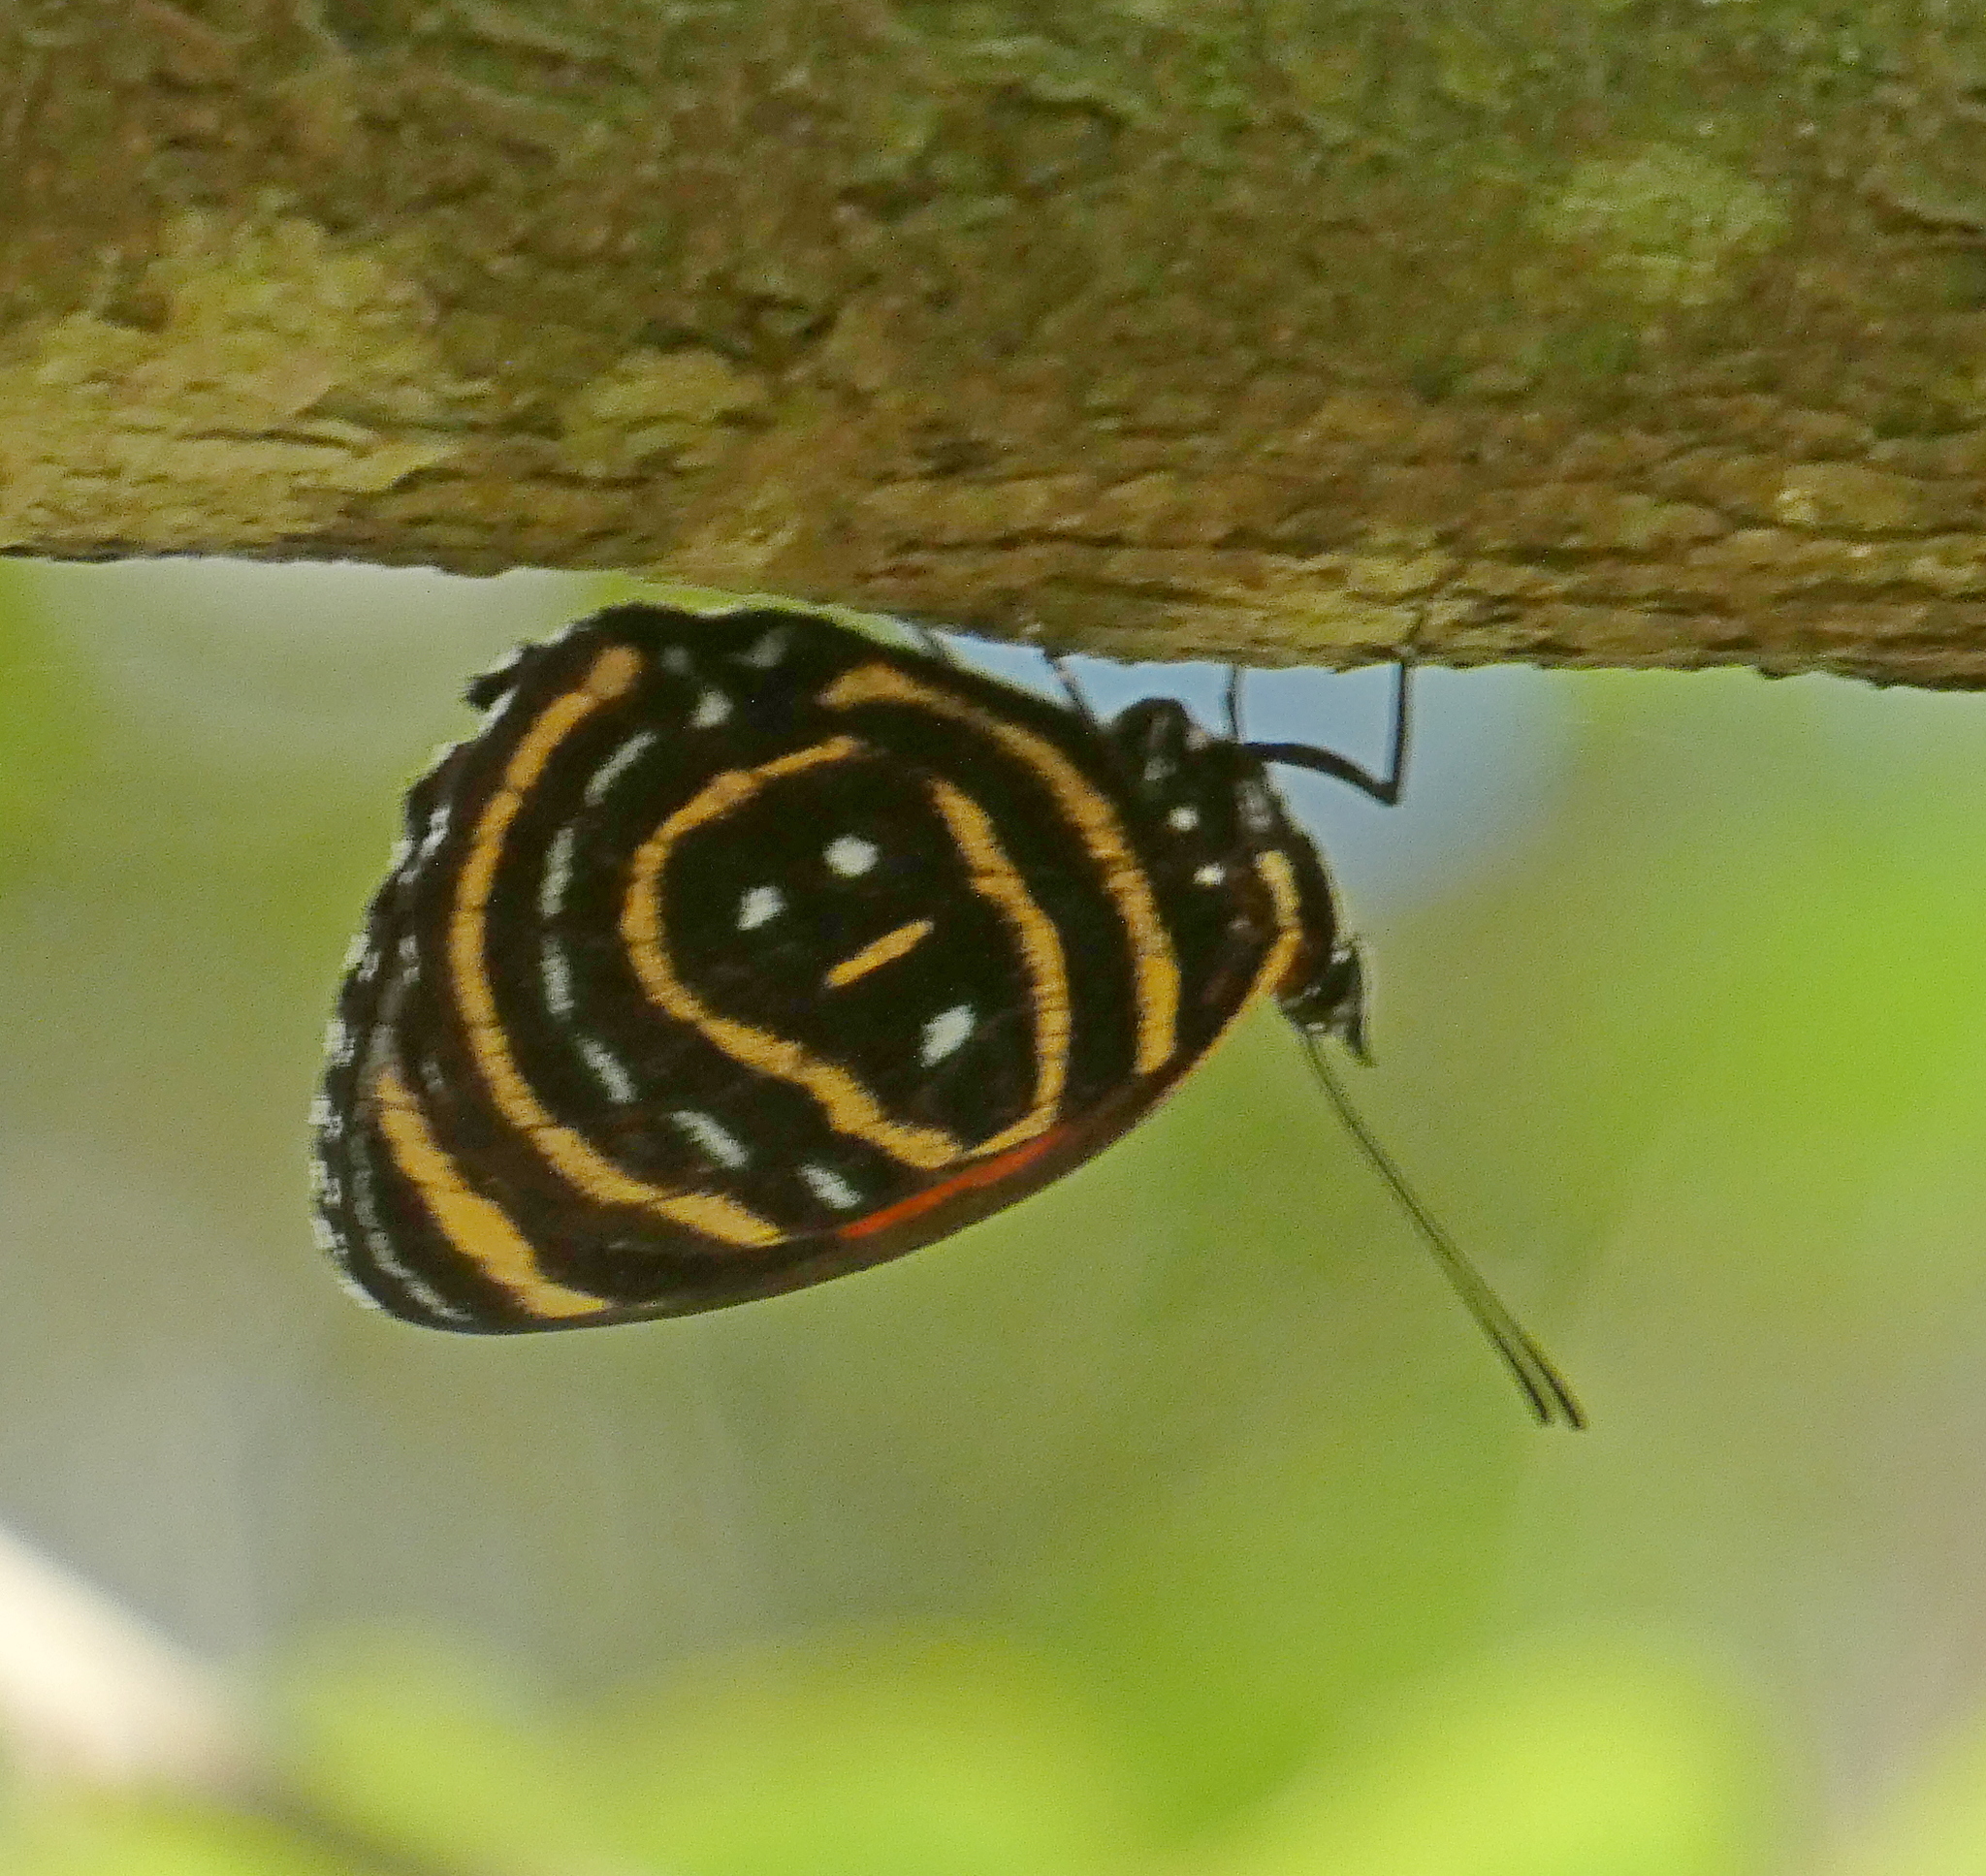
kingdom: Animalia
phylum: Arthropoda
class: Insecta
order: Lepidoptera
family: Nymphalidae
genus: Catagramma
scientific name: Catagramma astarte
